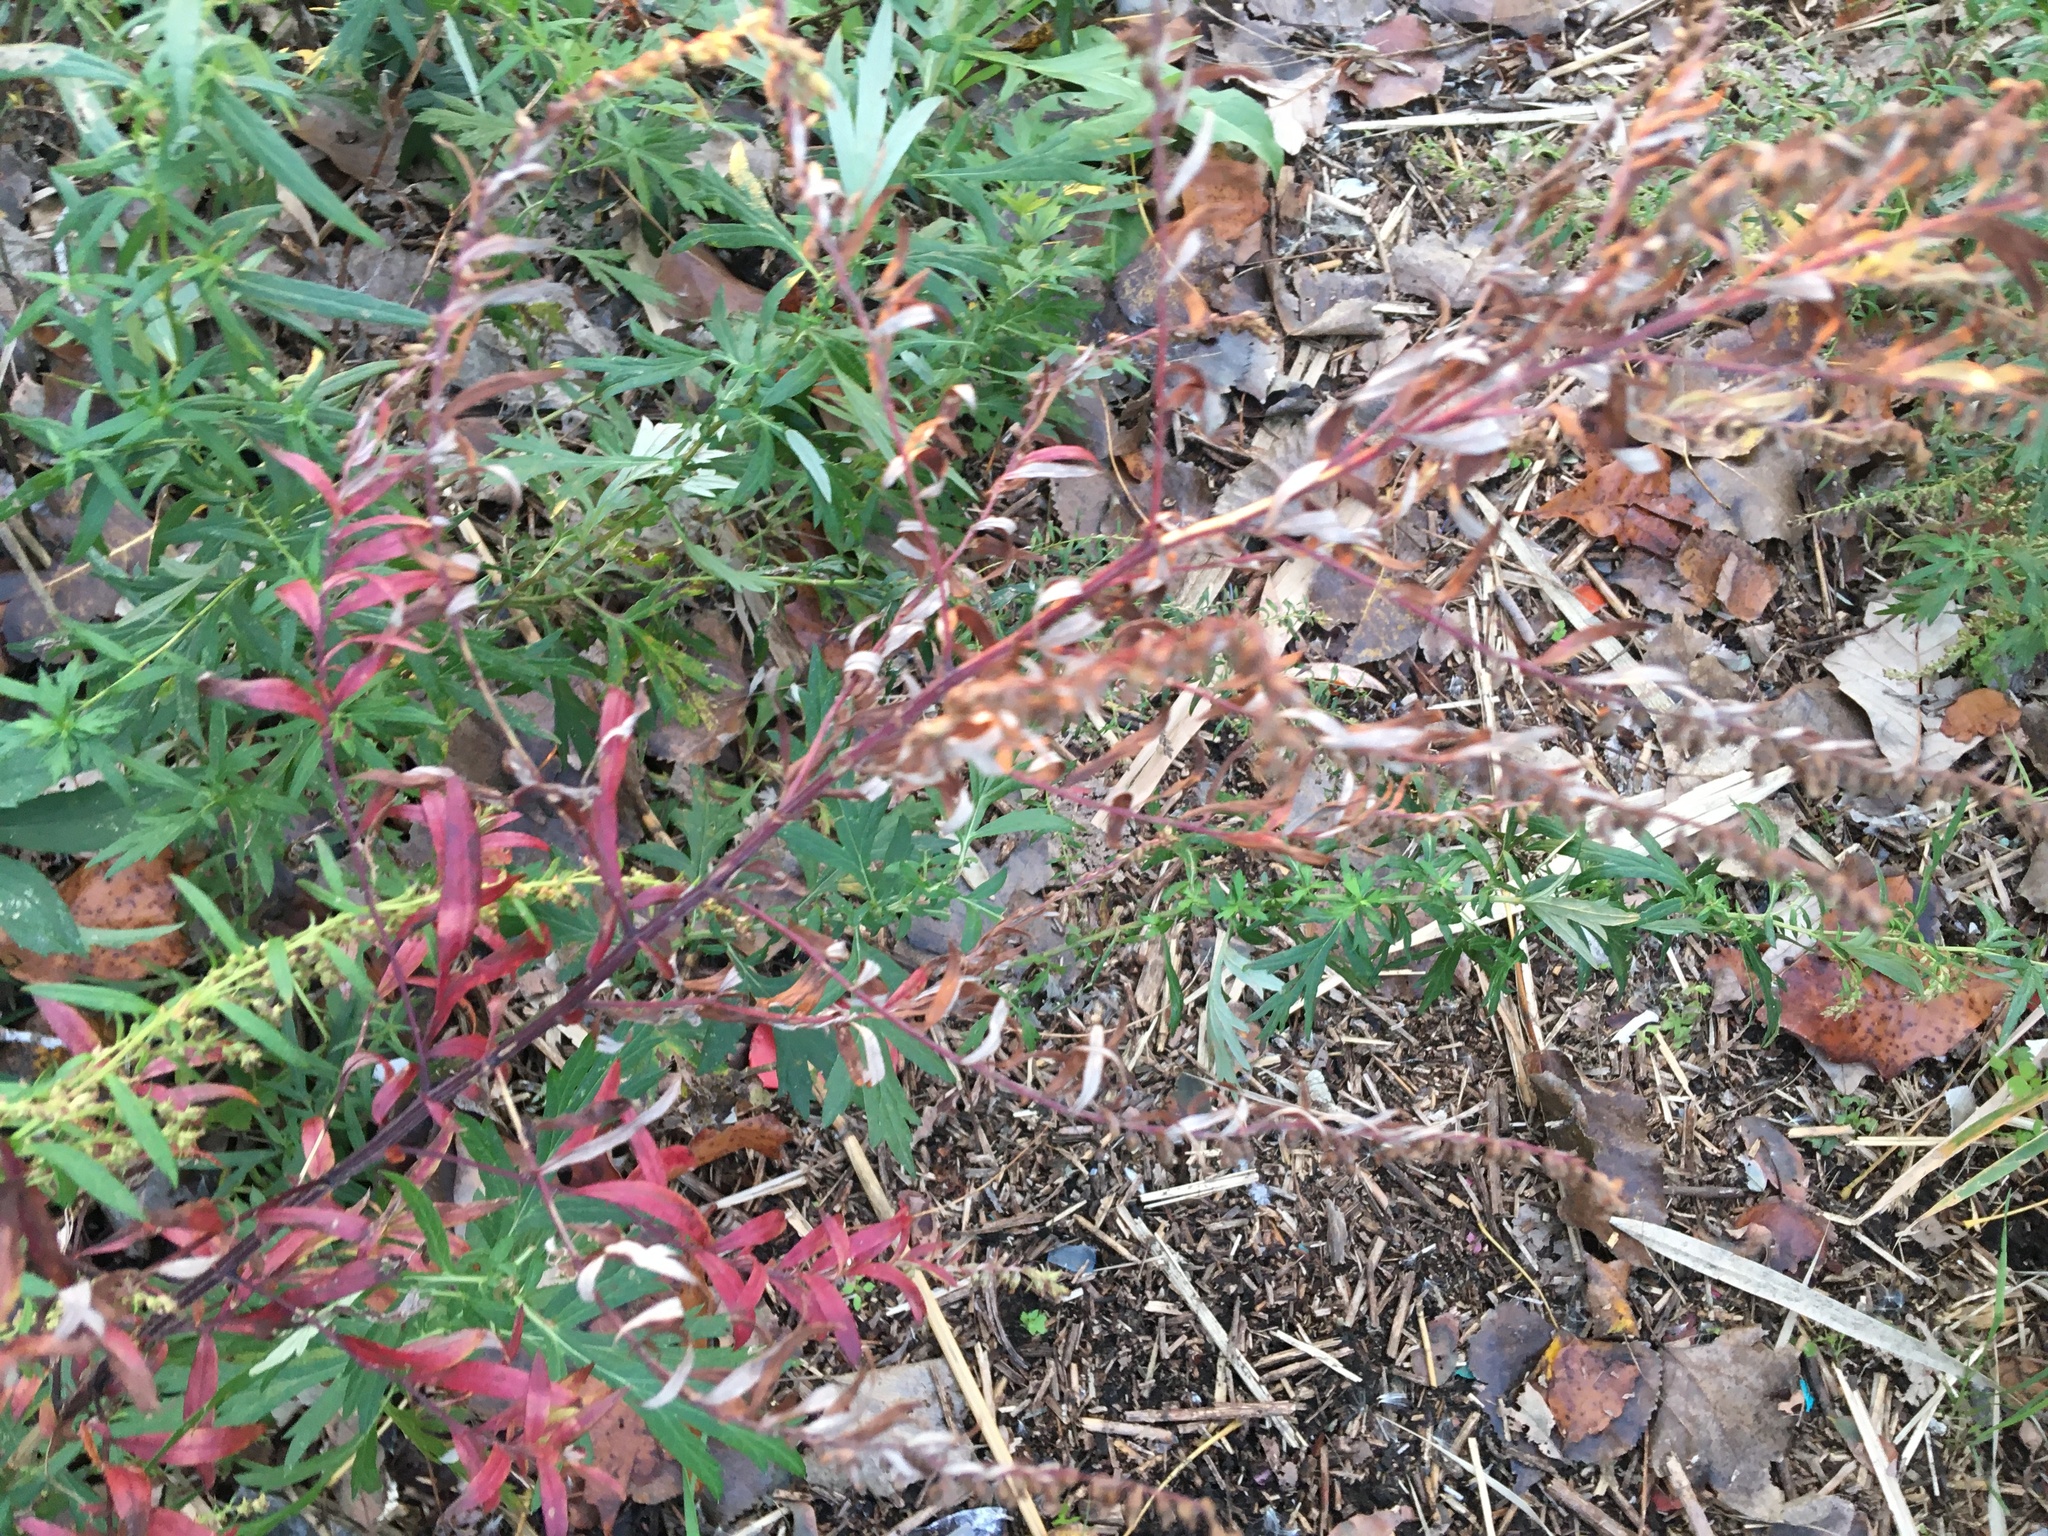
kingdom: Plantae
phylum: Tracheophyta
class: Magnoliopsida
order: Asterales
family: Asteraceae
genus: Artemisia
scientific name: Artemisia vulgaris
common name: Mugwort
